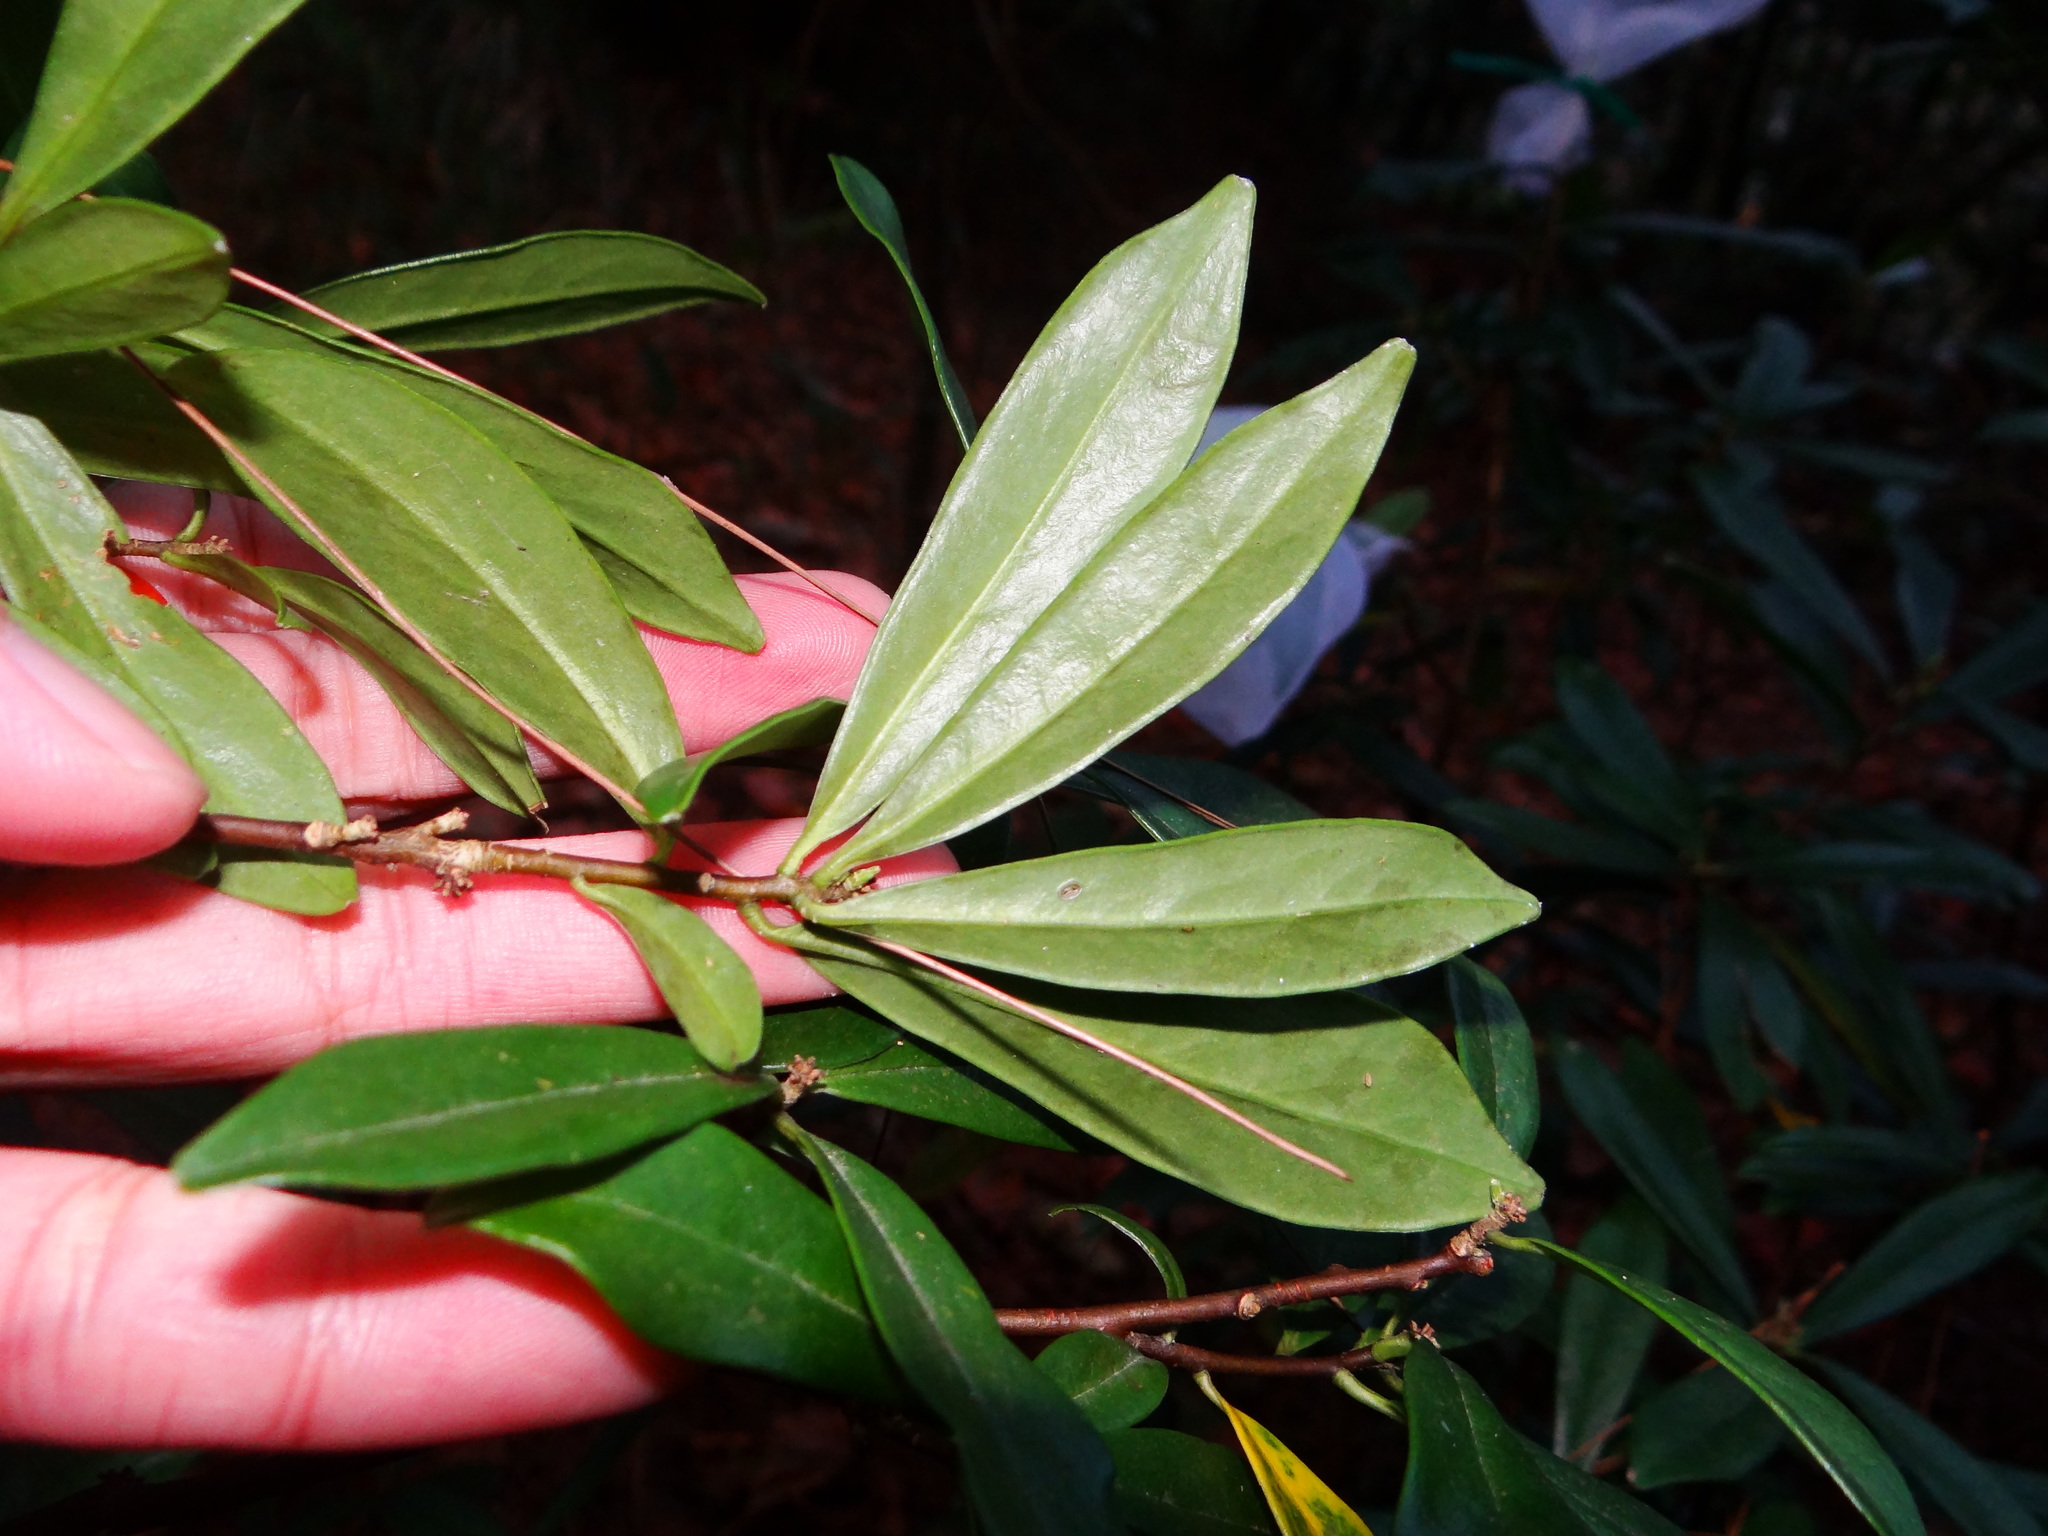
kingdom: Plantae
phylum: Tracheophyta
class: Magnoliopsida
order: Malvales
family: Thymelaeaceae
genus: Daphne
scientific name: Daphne arisanensis
